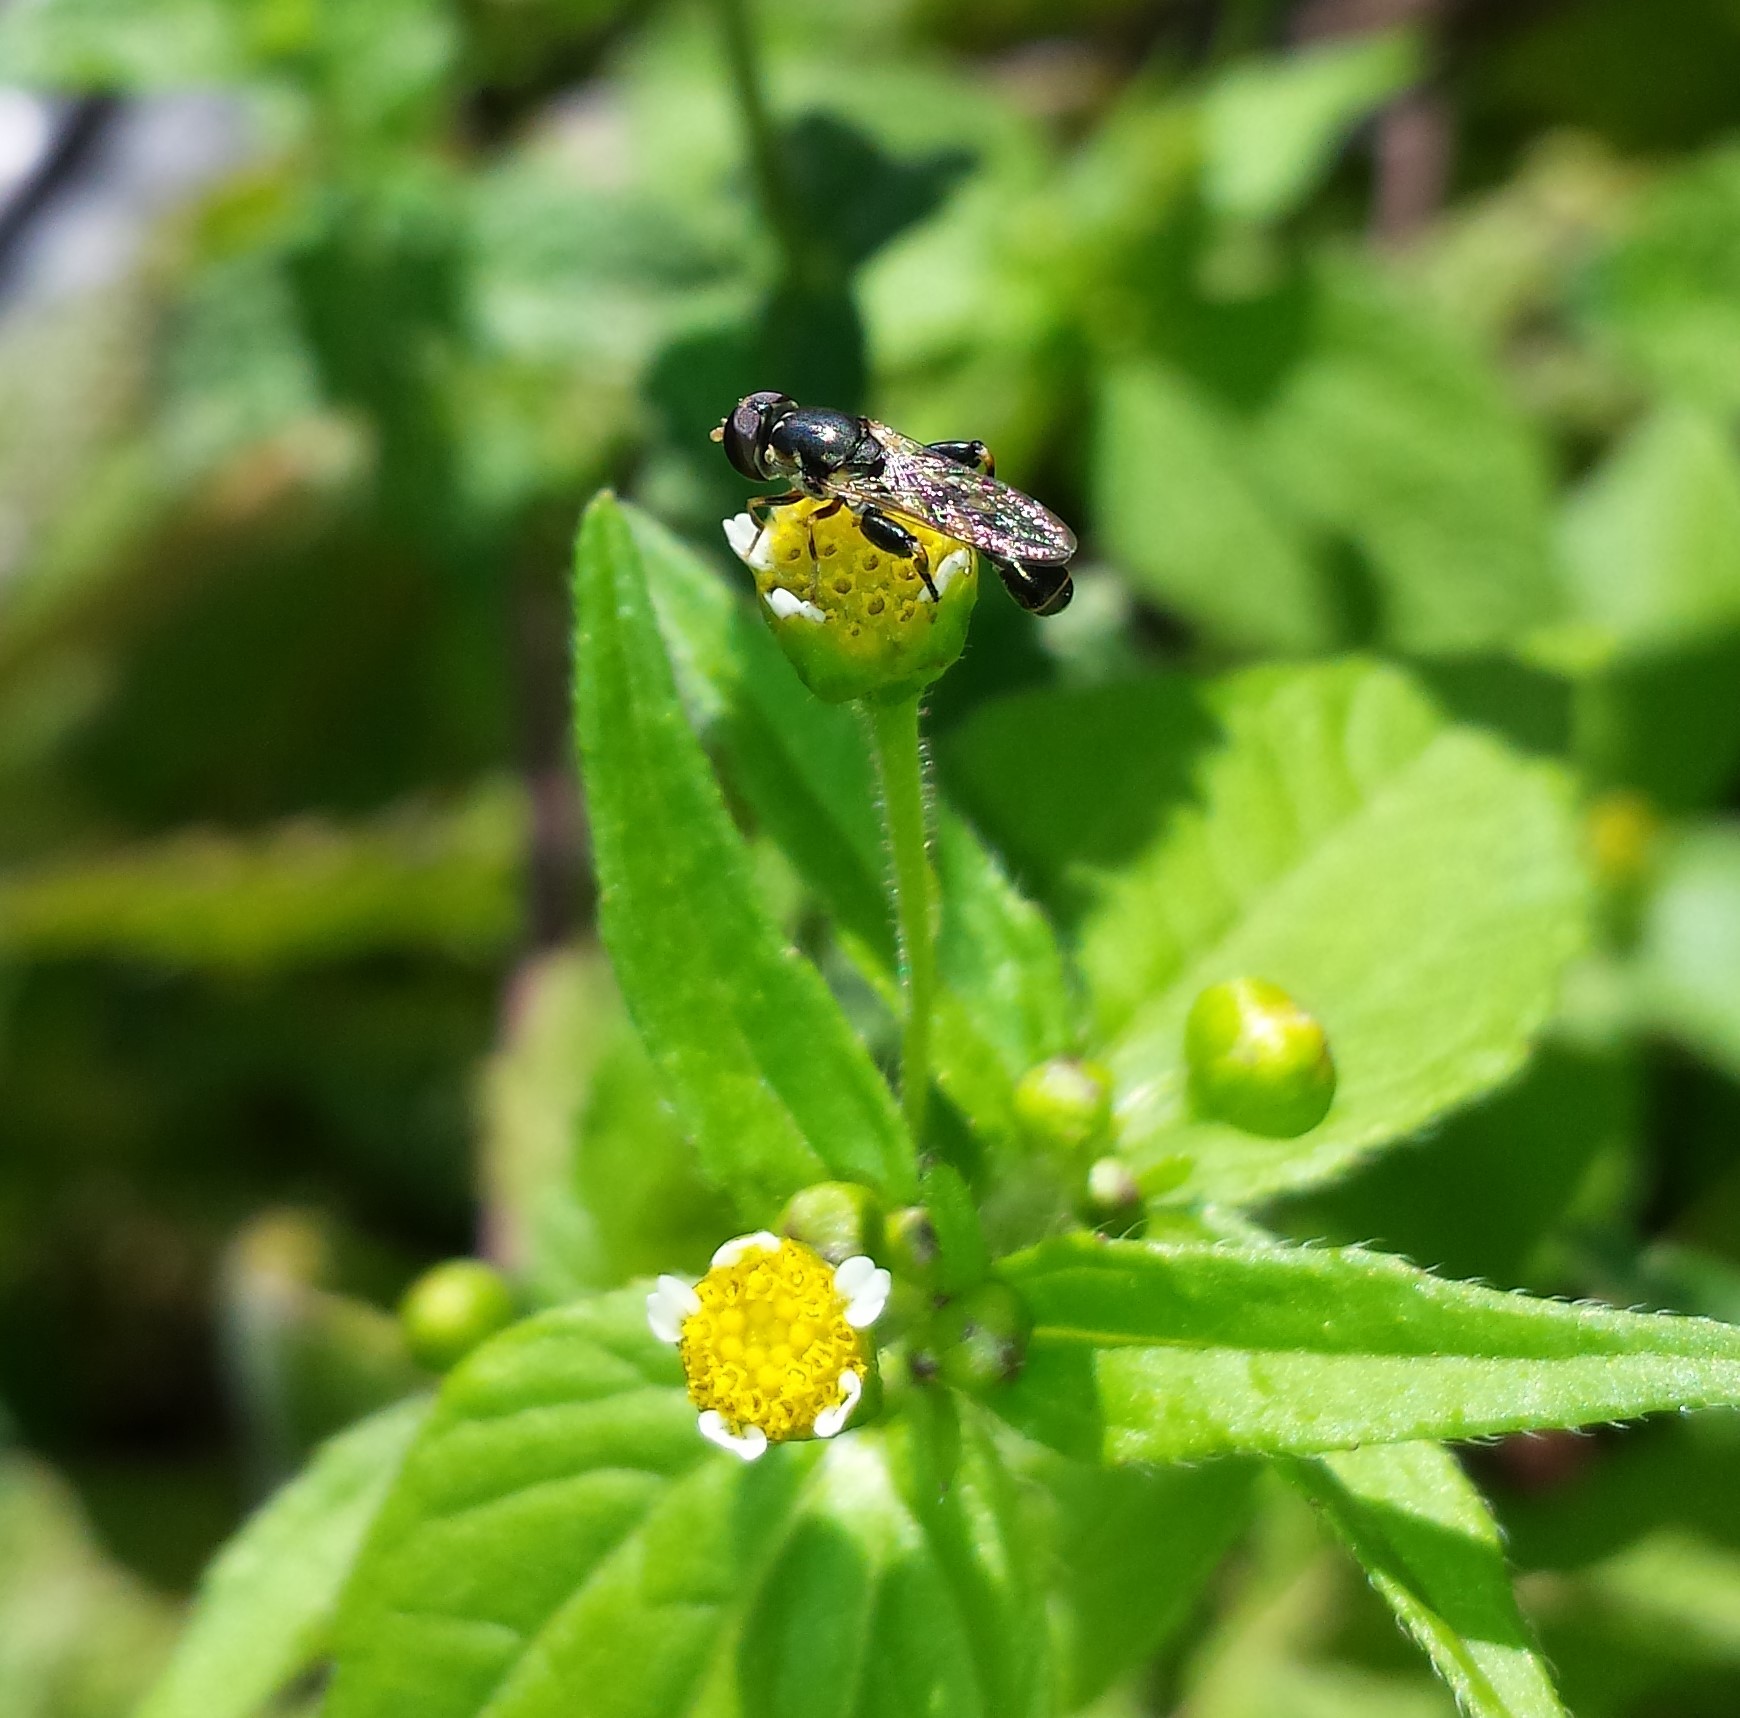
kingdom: Animalia
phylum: Arthropoda
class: Insecta
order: Diptera
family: Syrphidae
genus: Syritta
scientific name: Syritta pipiens
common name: Hover fly
